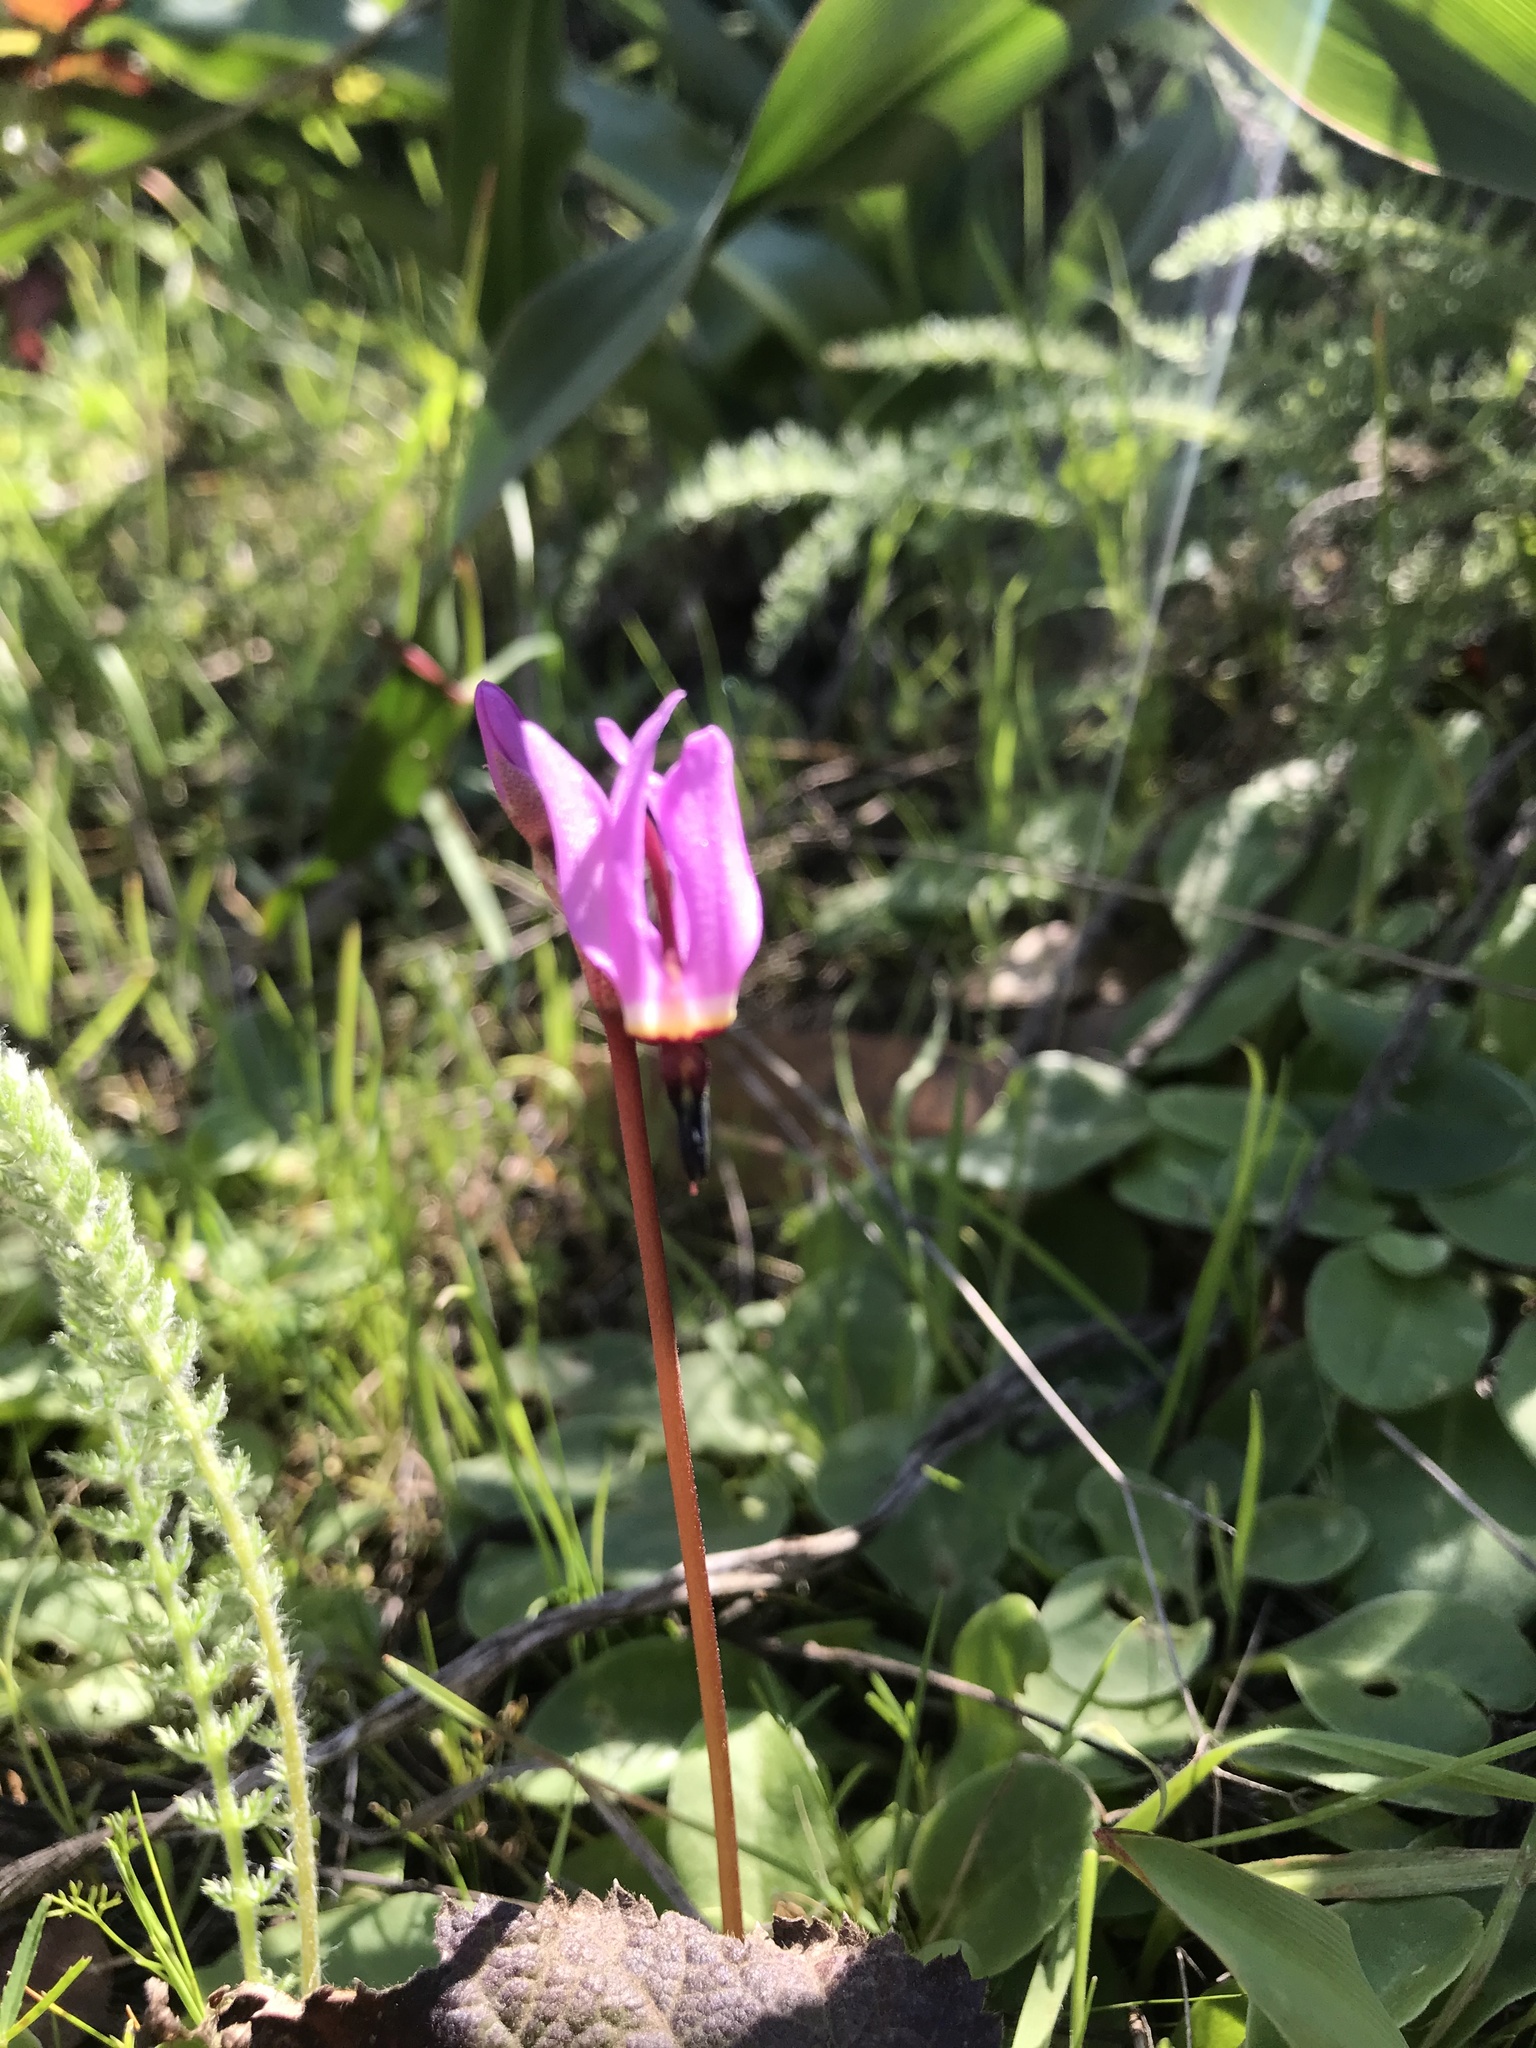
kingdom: Plantae
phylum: Tracheophyta
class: Magnoliopsida
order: Ericales
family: Primulaceae
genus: Dodecatheon
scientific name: Dodecatheon hendersonii
